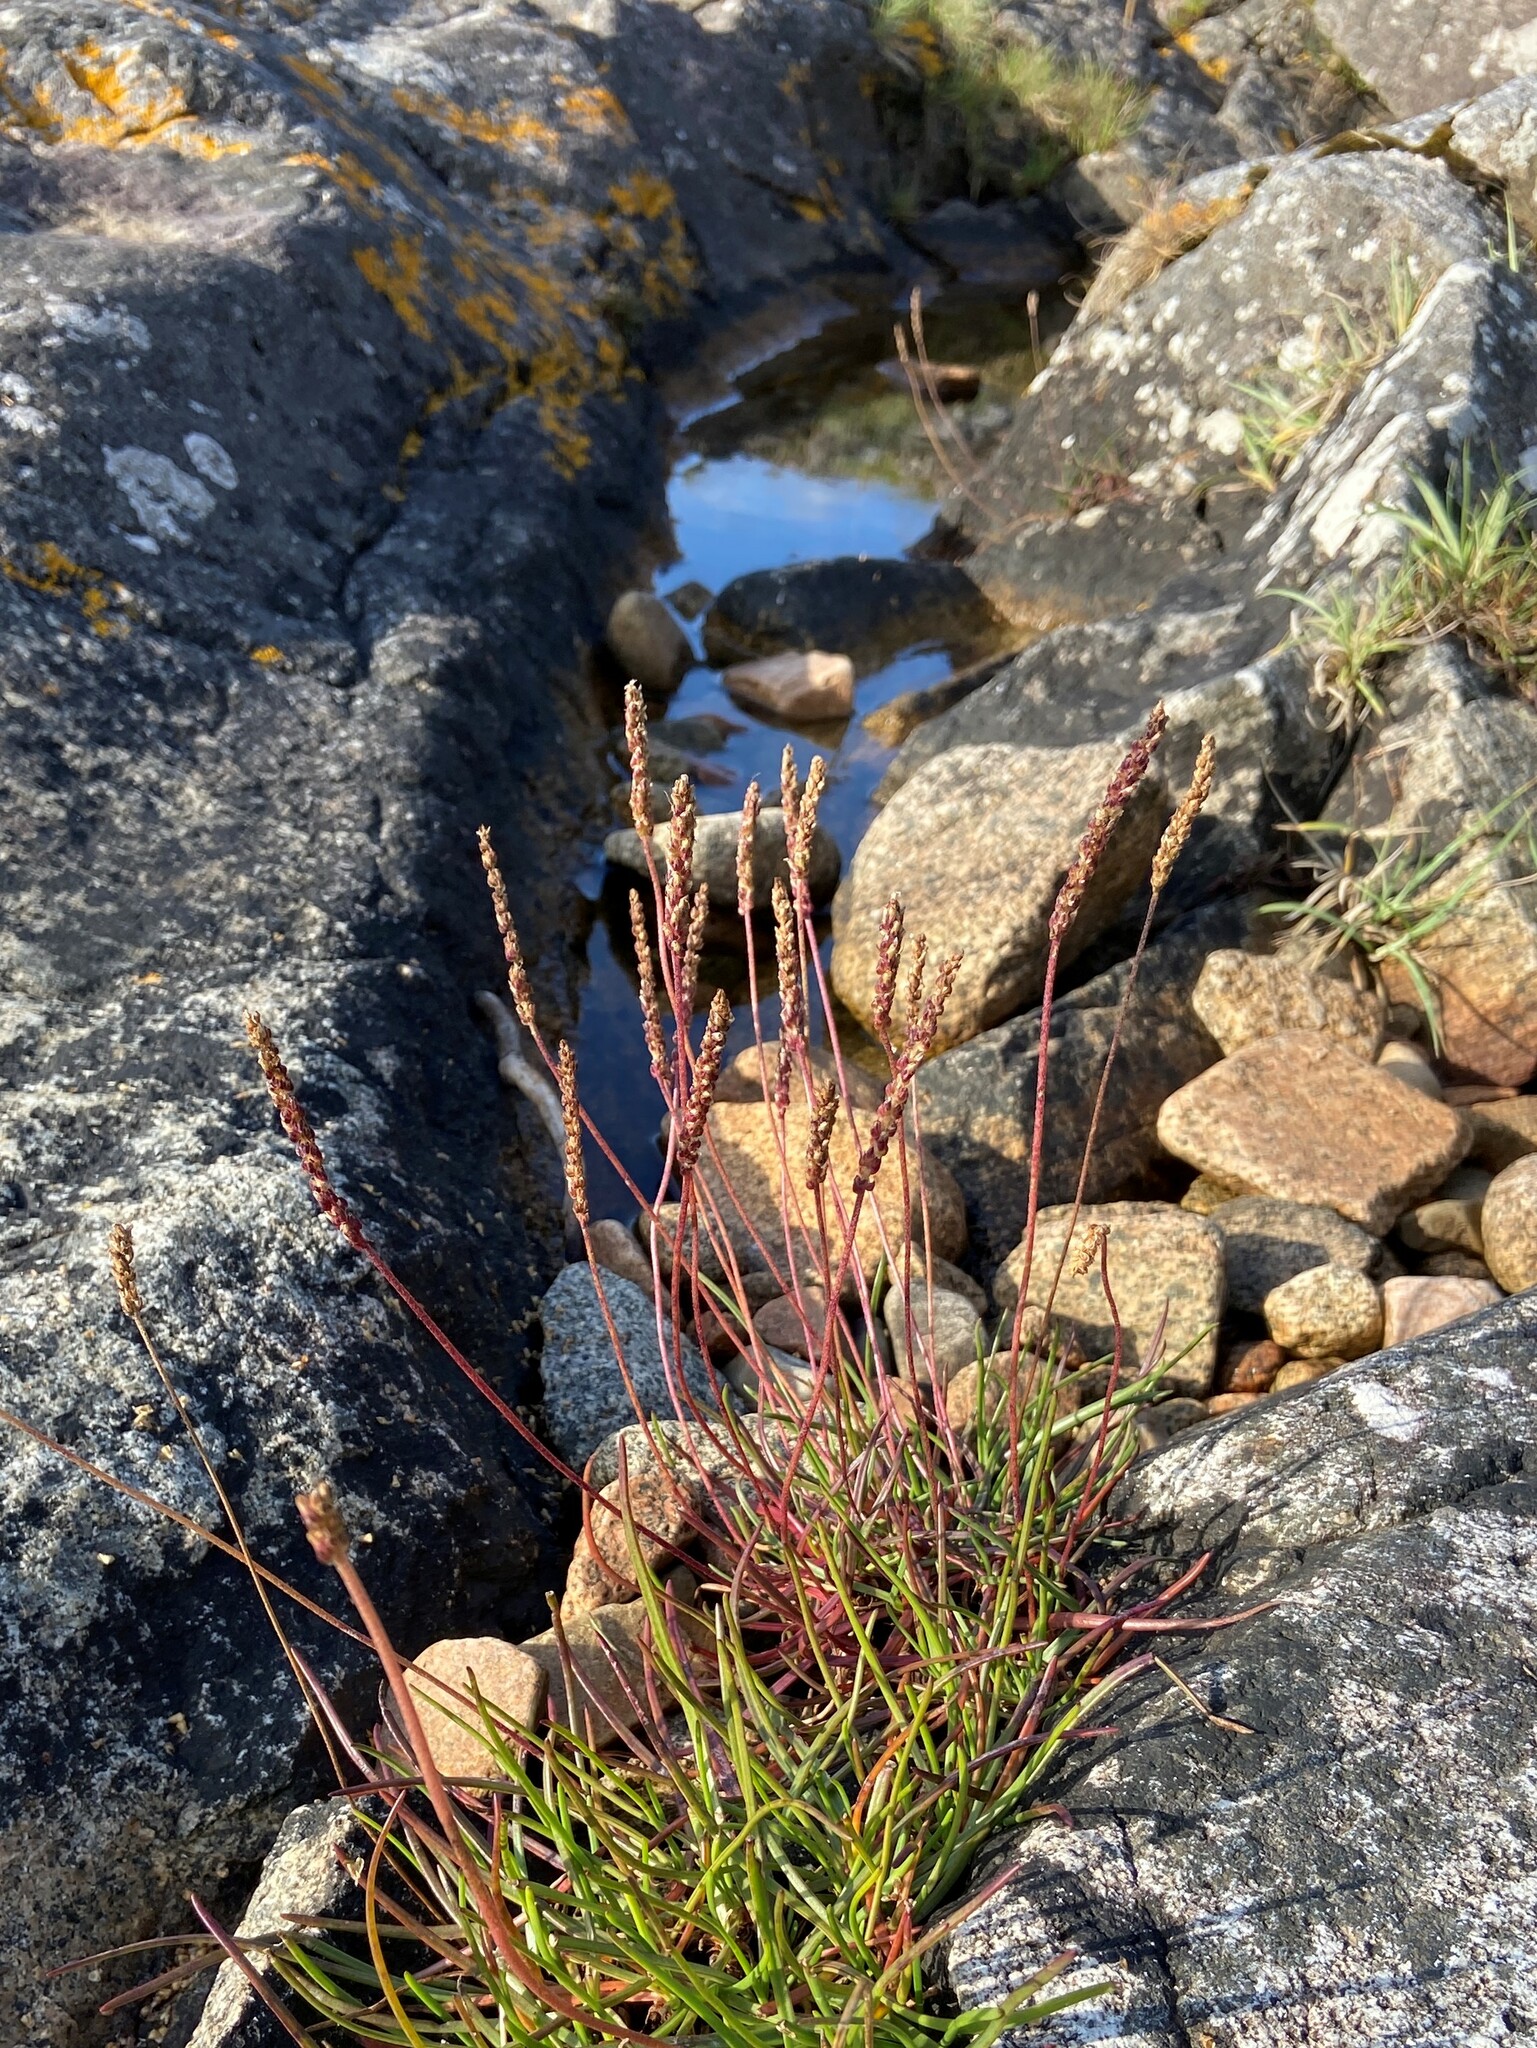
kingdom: Plantae
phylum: Tracheophyta
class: Magnoliopsida
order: Lamiales
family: Plantaginaceae
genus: Plantago
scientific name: Plantago maritima
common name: Sea plantain
